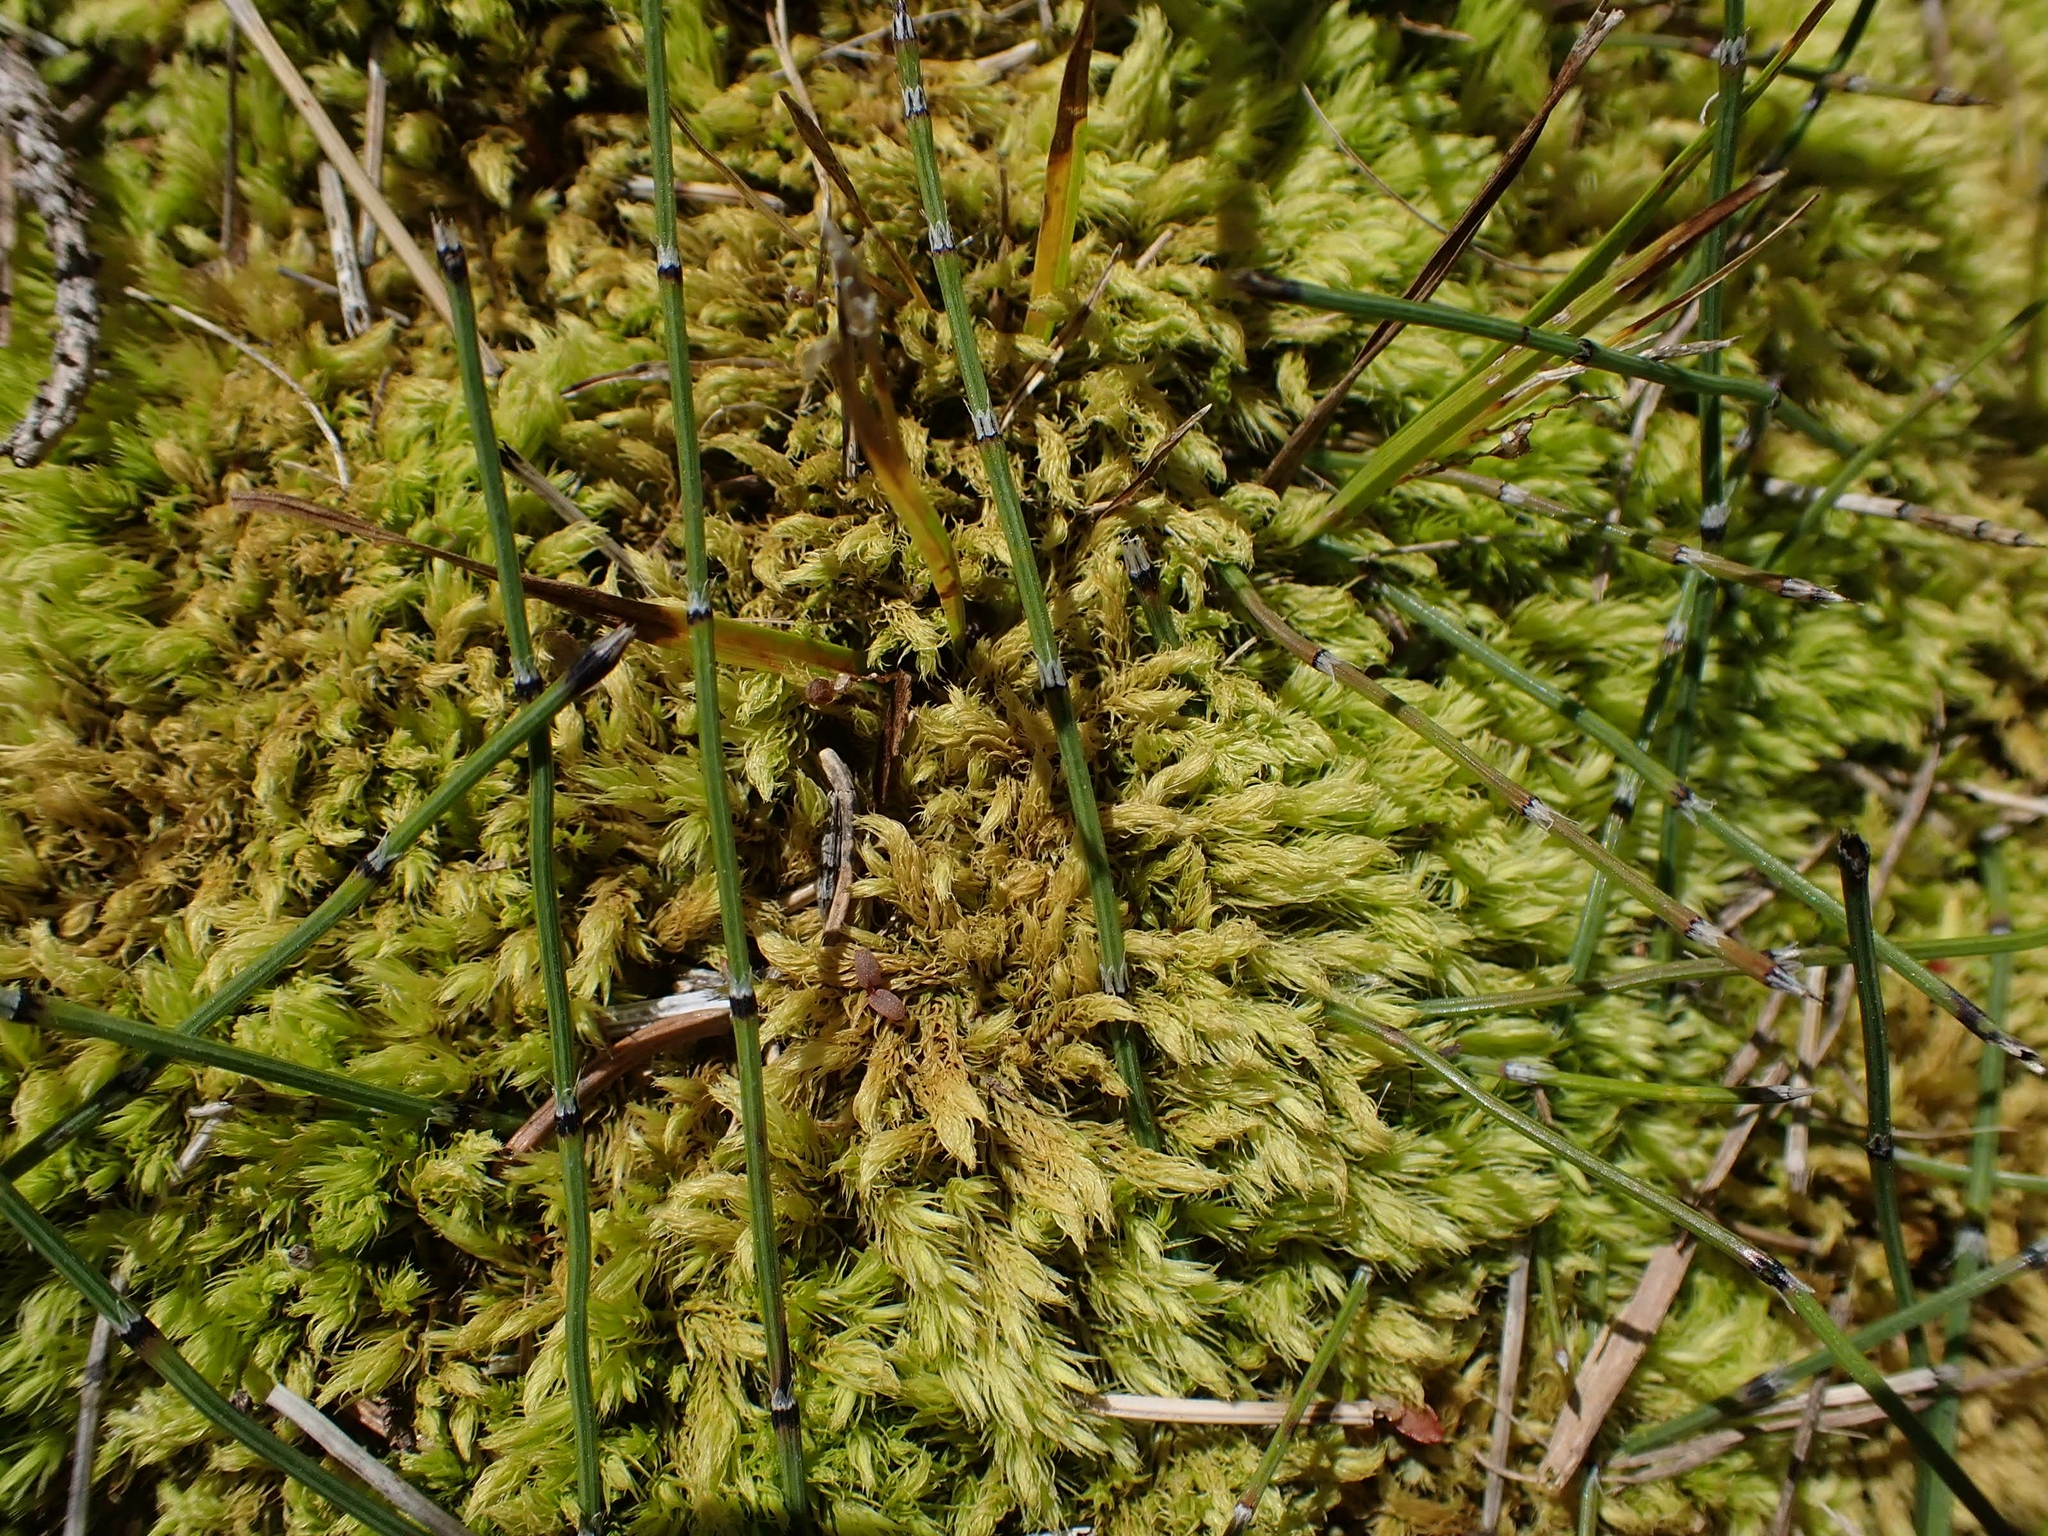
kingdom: Plantae
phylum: Tracheophyta
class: Polypodiopsida
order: Equisetales
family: Equisetaceae
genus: Equisetum
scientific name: Equisetum variegatum
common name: Variegated horsetail
